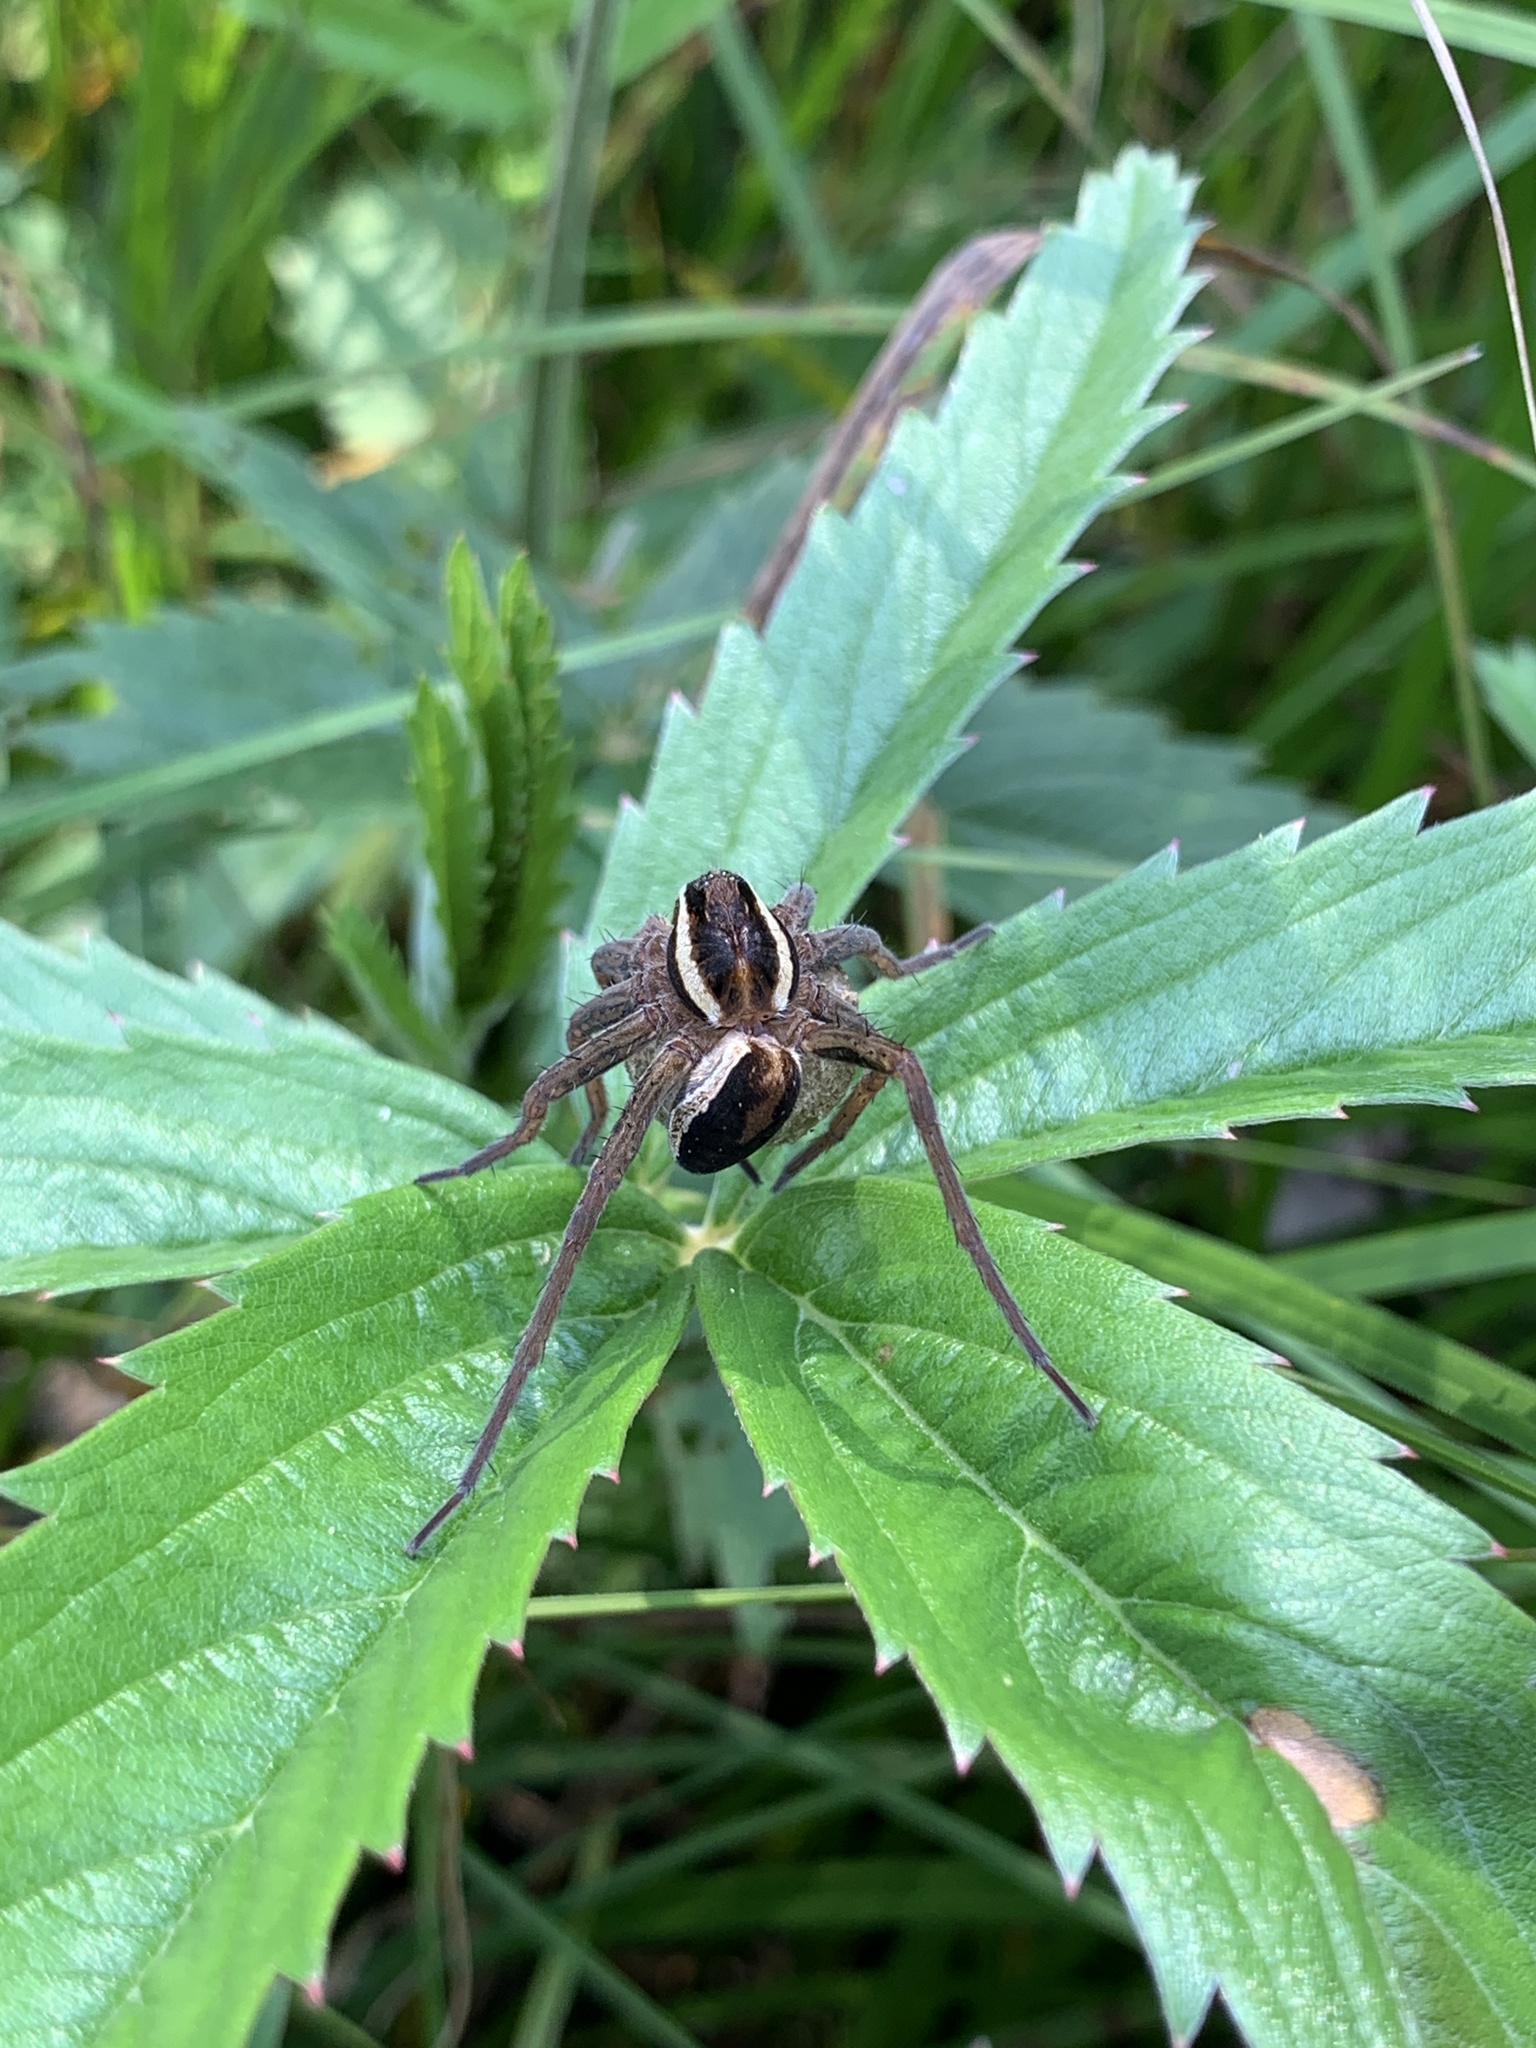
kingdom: Plantae
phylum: Tracheophyta
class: Magnoliopsida
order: Rosales
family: Rosaceae
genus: Comarum
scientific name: Comarum palustre
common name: Marsh cinquefoil
